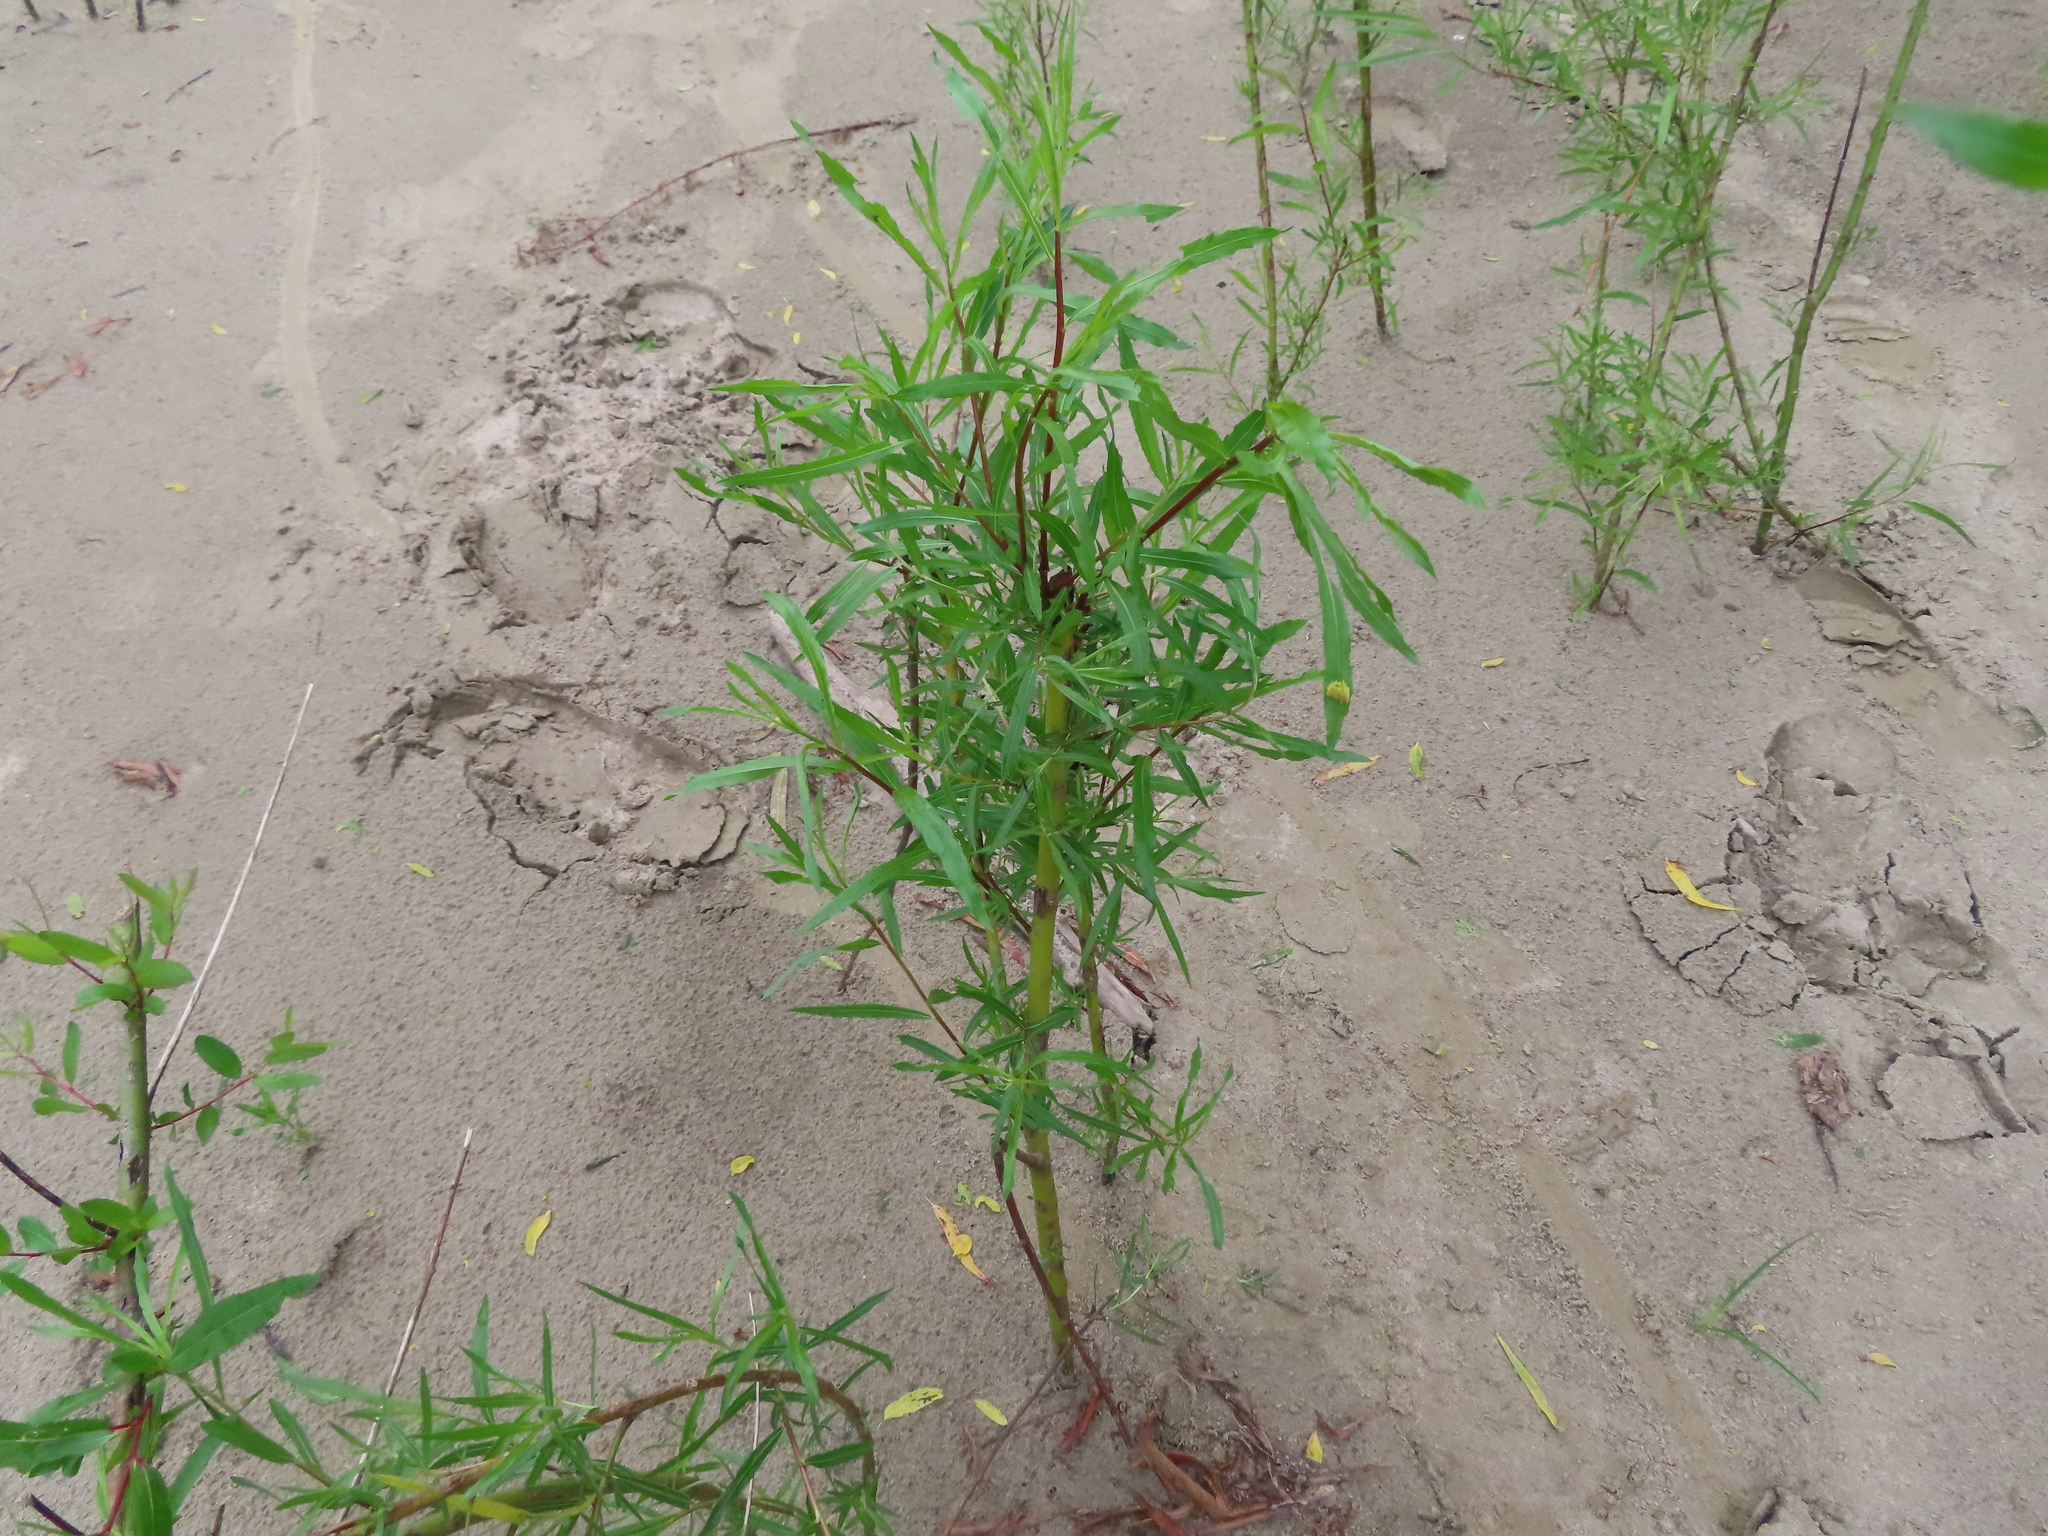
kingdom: Plantae
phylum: Tracheophyta
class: Magnoliopsida
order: Malpighiales
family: Salicaceae
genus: Salix
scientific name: Salix interior
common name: Sandbar willow
